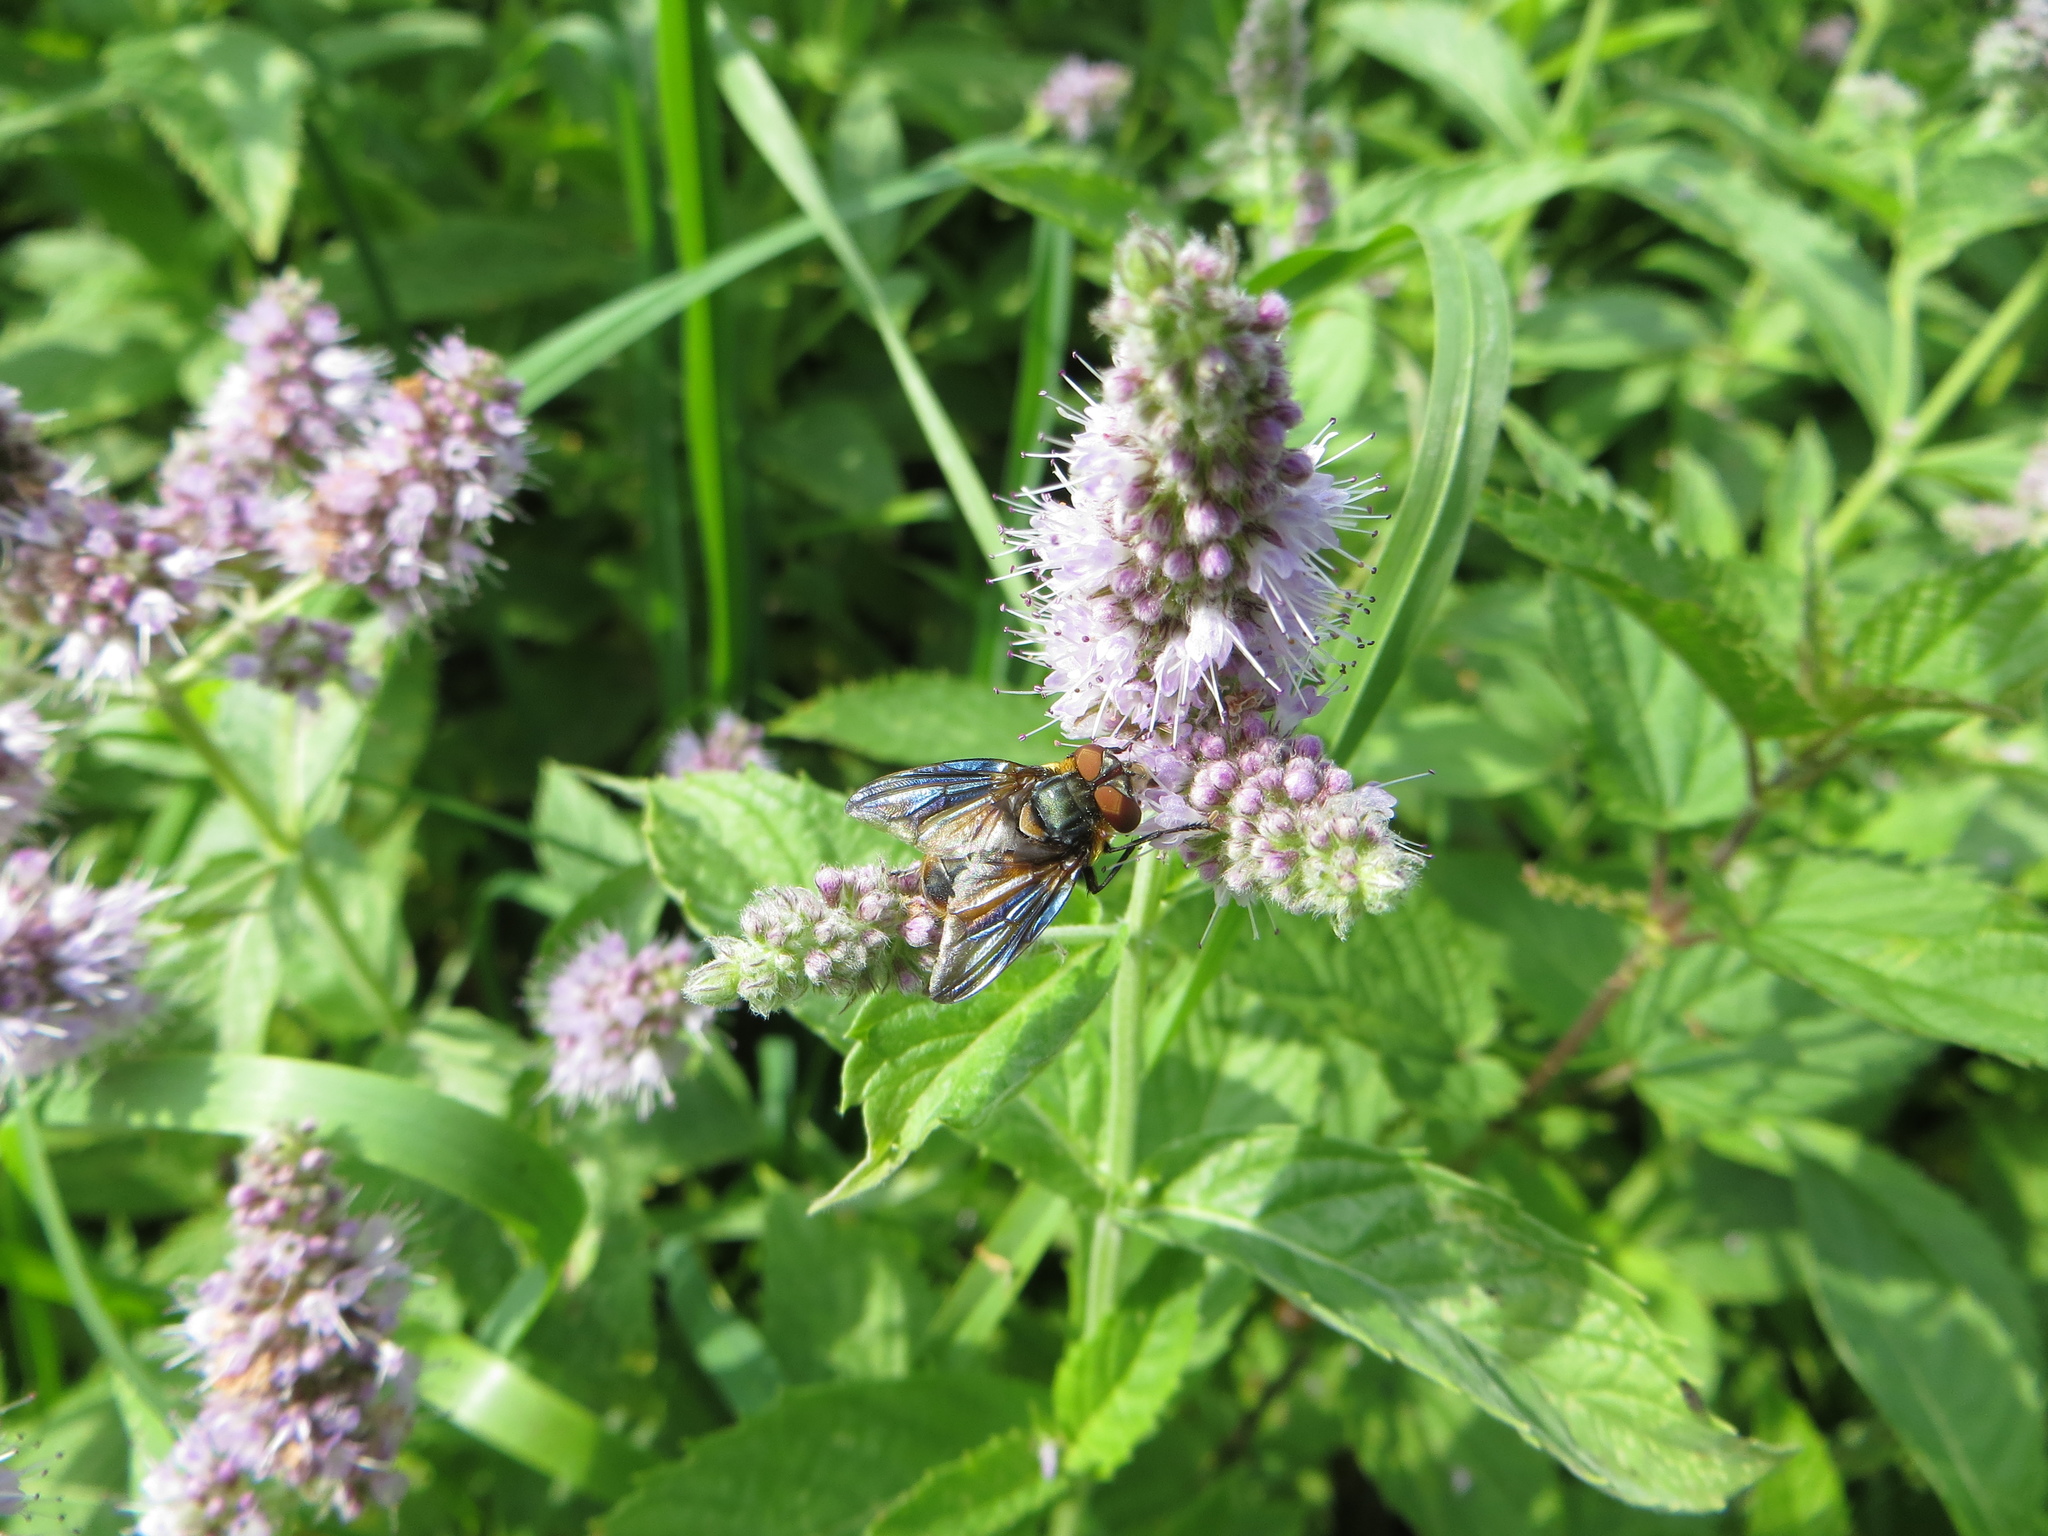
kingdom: Animalia
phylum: Arthropoda
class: Insecta
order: Diptera
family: Tachinidae
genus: Phasia
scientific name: Phasia hemiptera
